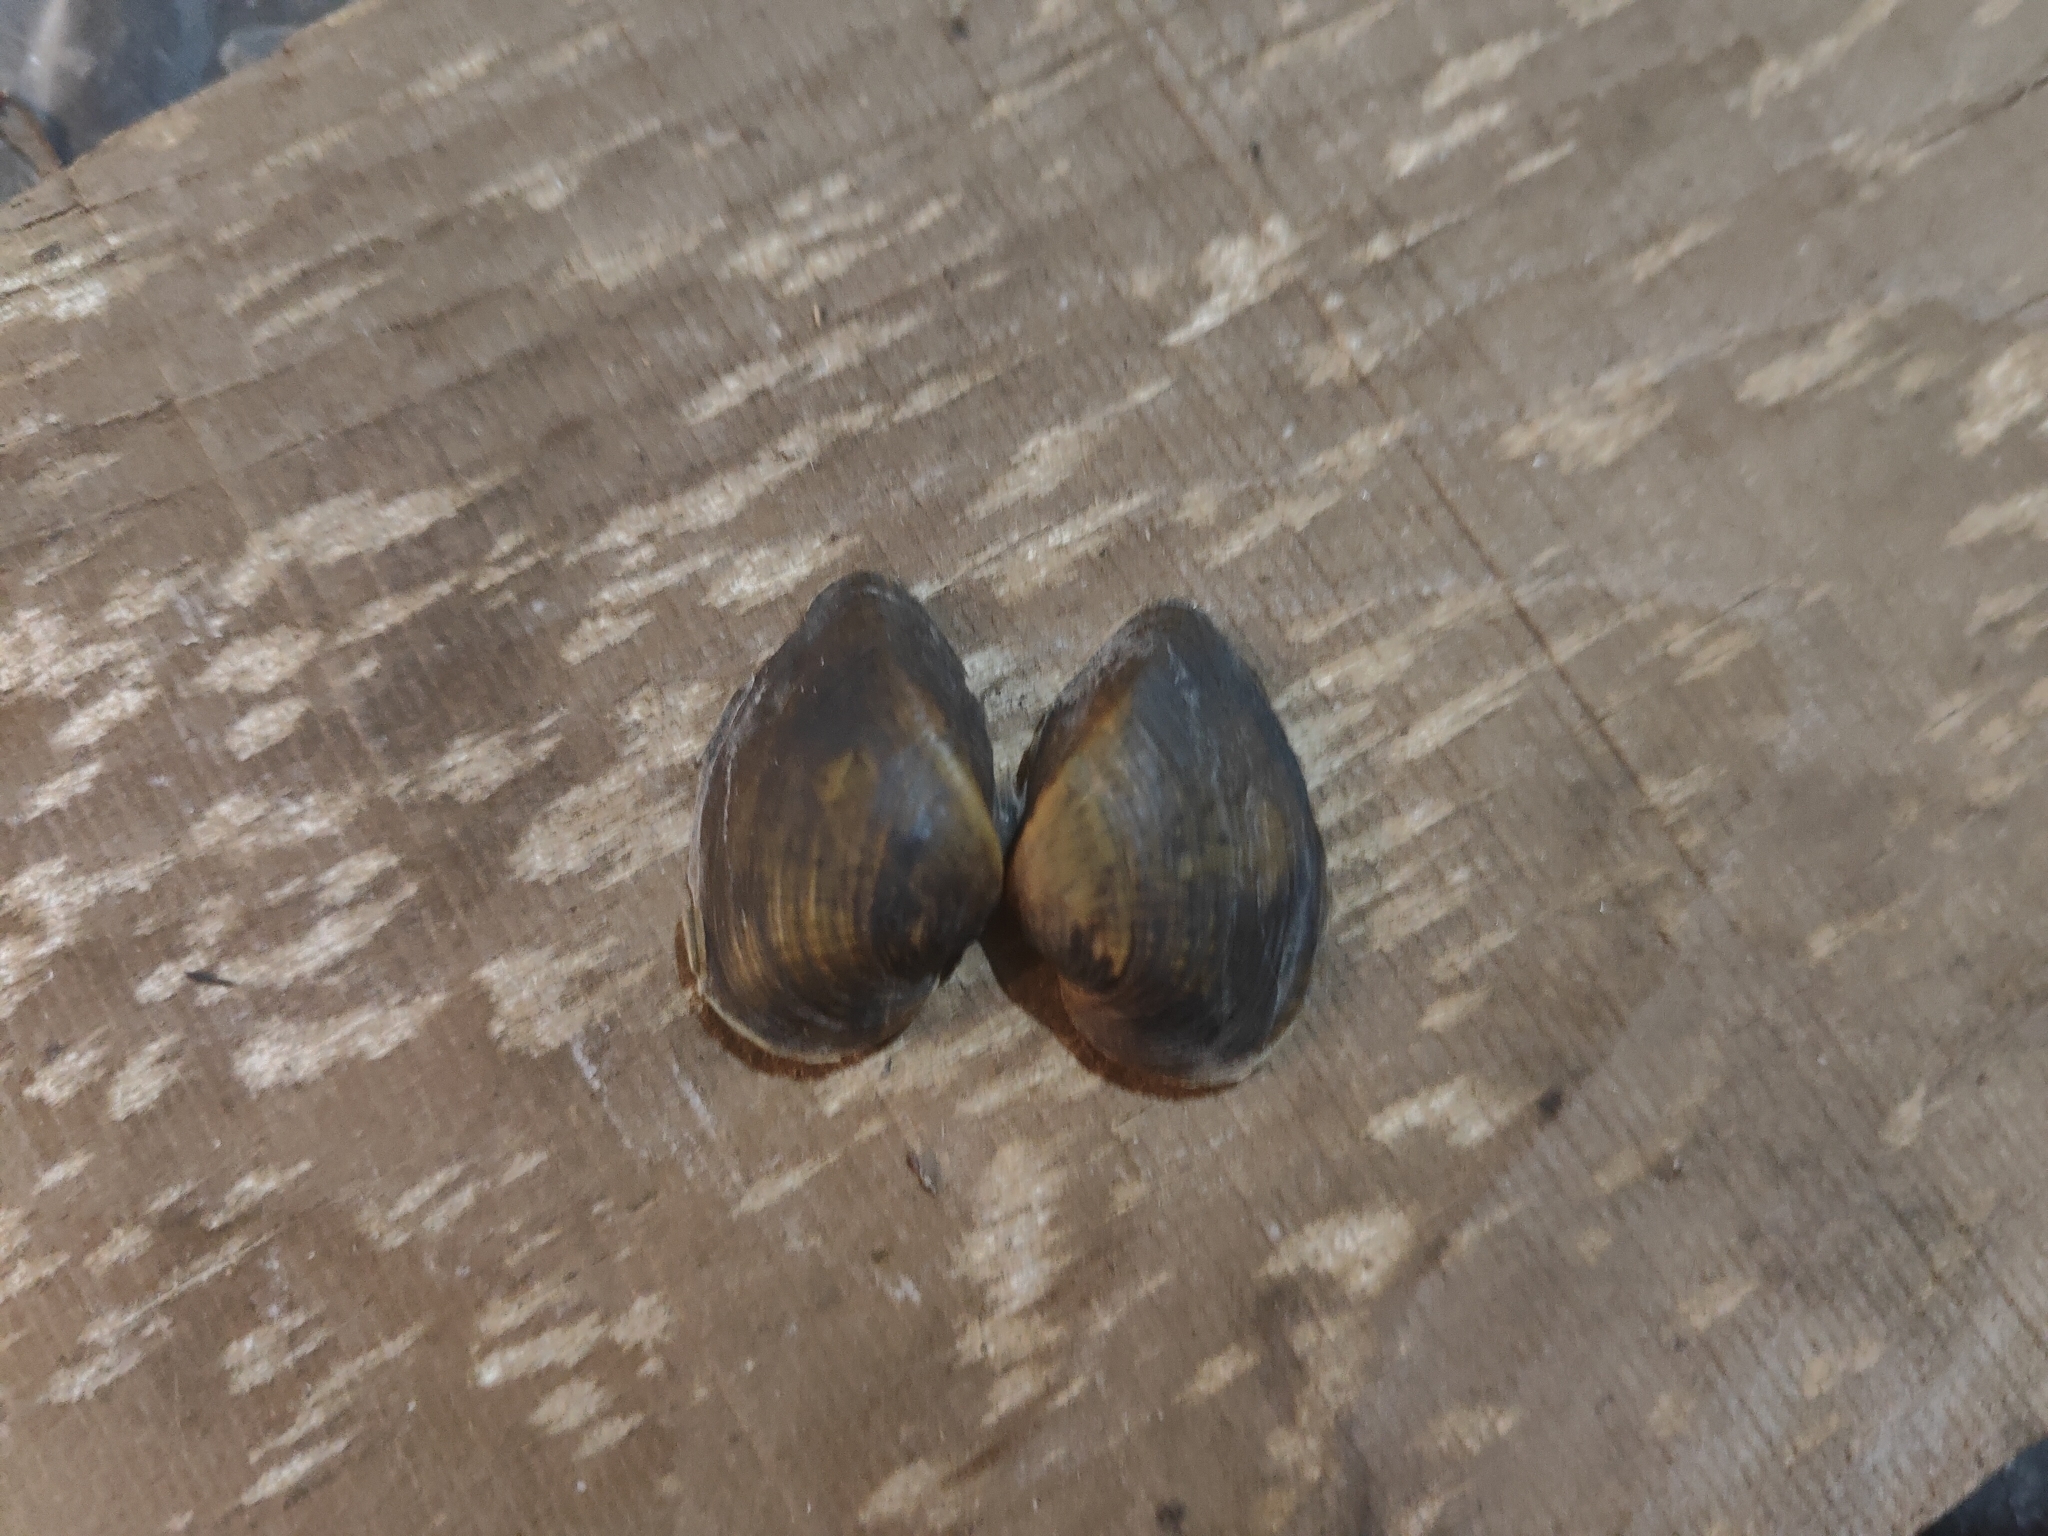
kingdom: Animalia
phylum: Mollusca
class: Bivalvia
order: Unionida
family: Unionidae
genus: Truncilla
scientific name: Truncilla truncata
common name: Deertoe
